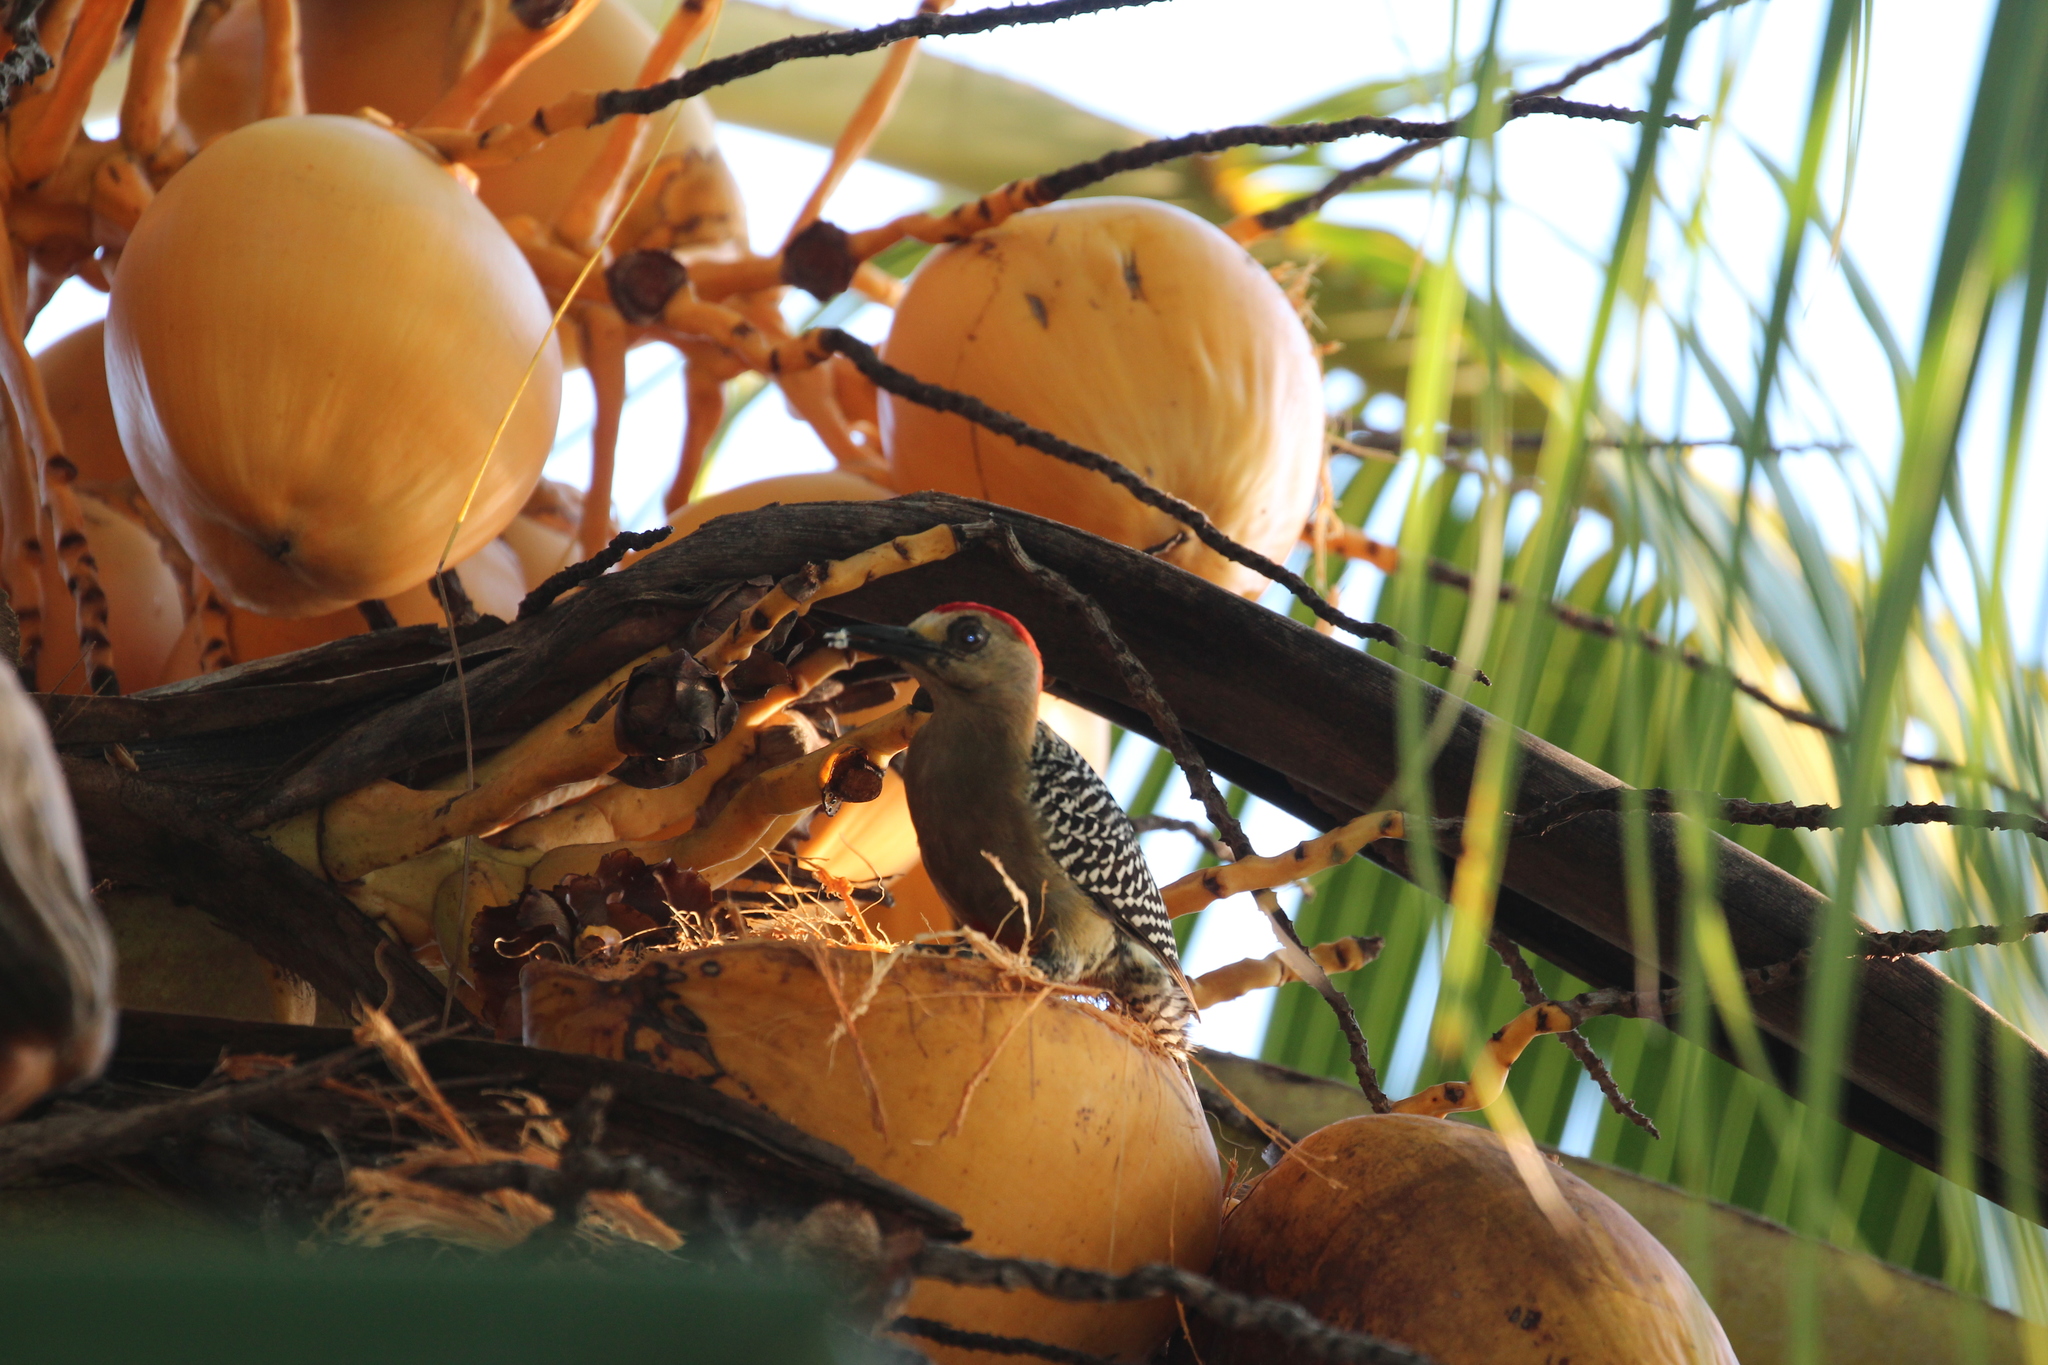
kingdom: Animalia
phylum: Chordata
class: Aves
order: Piciformes
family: Picidae
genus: Melanerpes
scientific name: Melanerpes rubricapillus
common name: Red-crowned woodpecker
